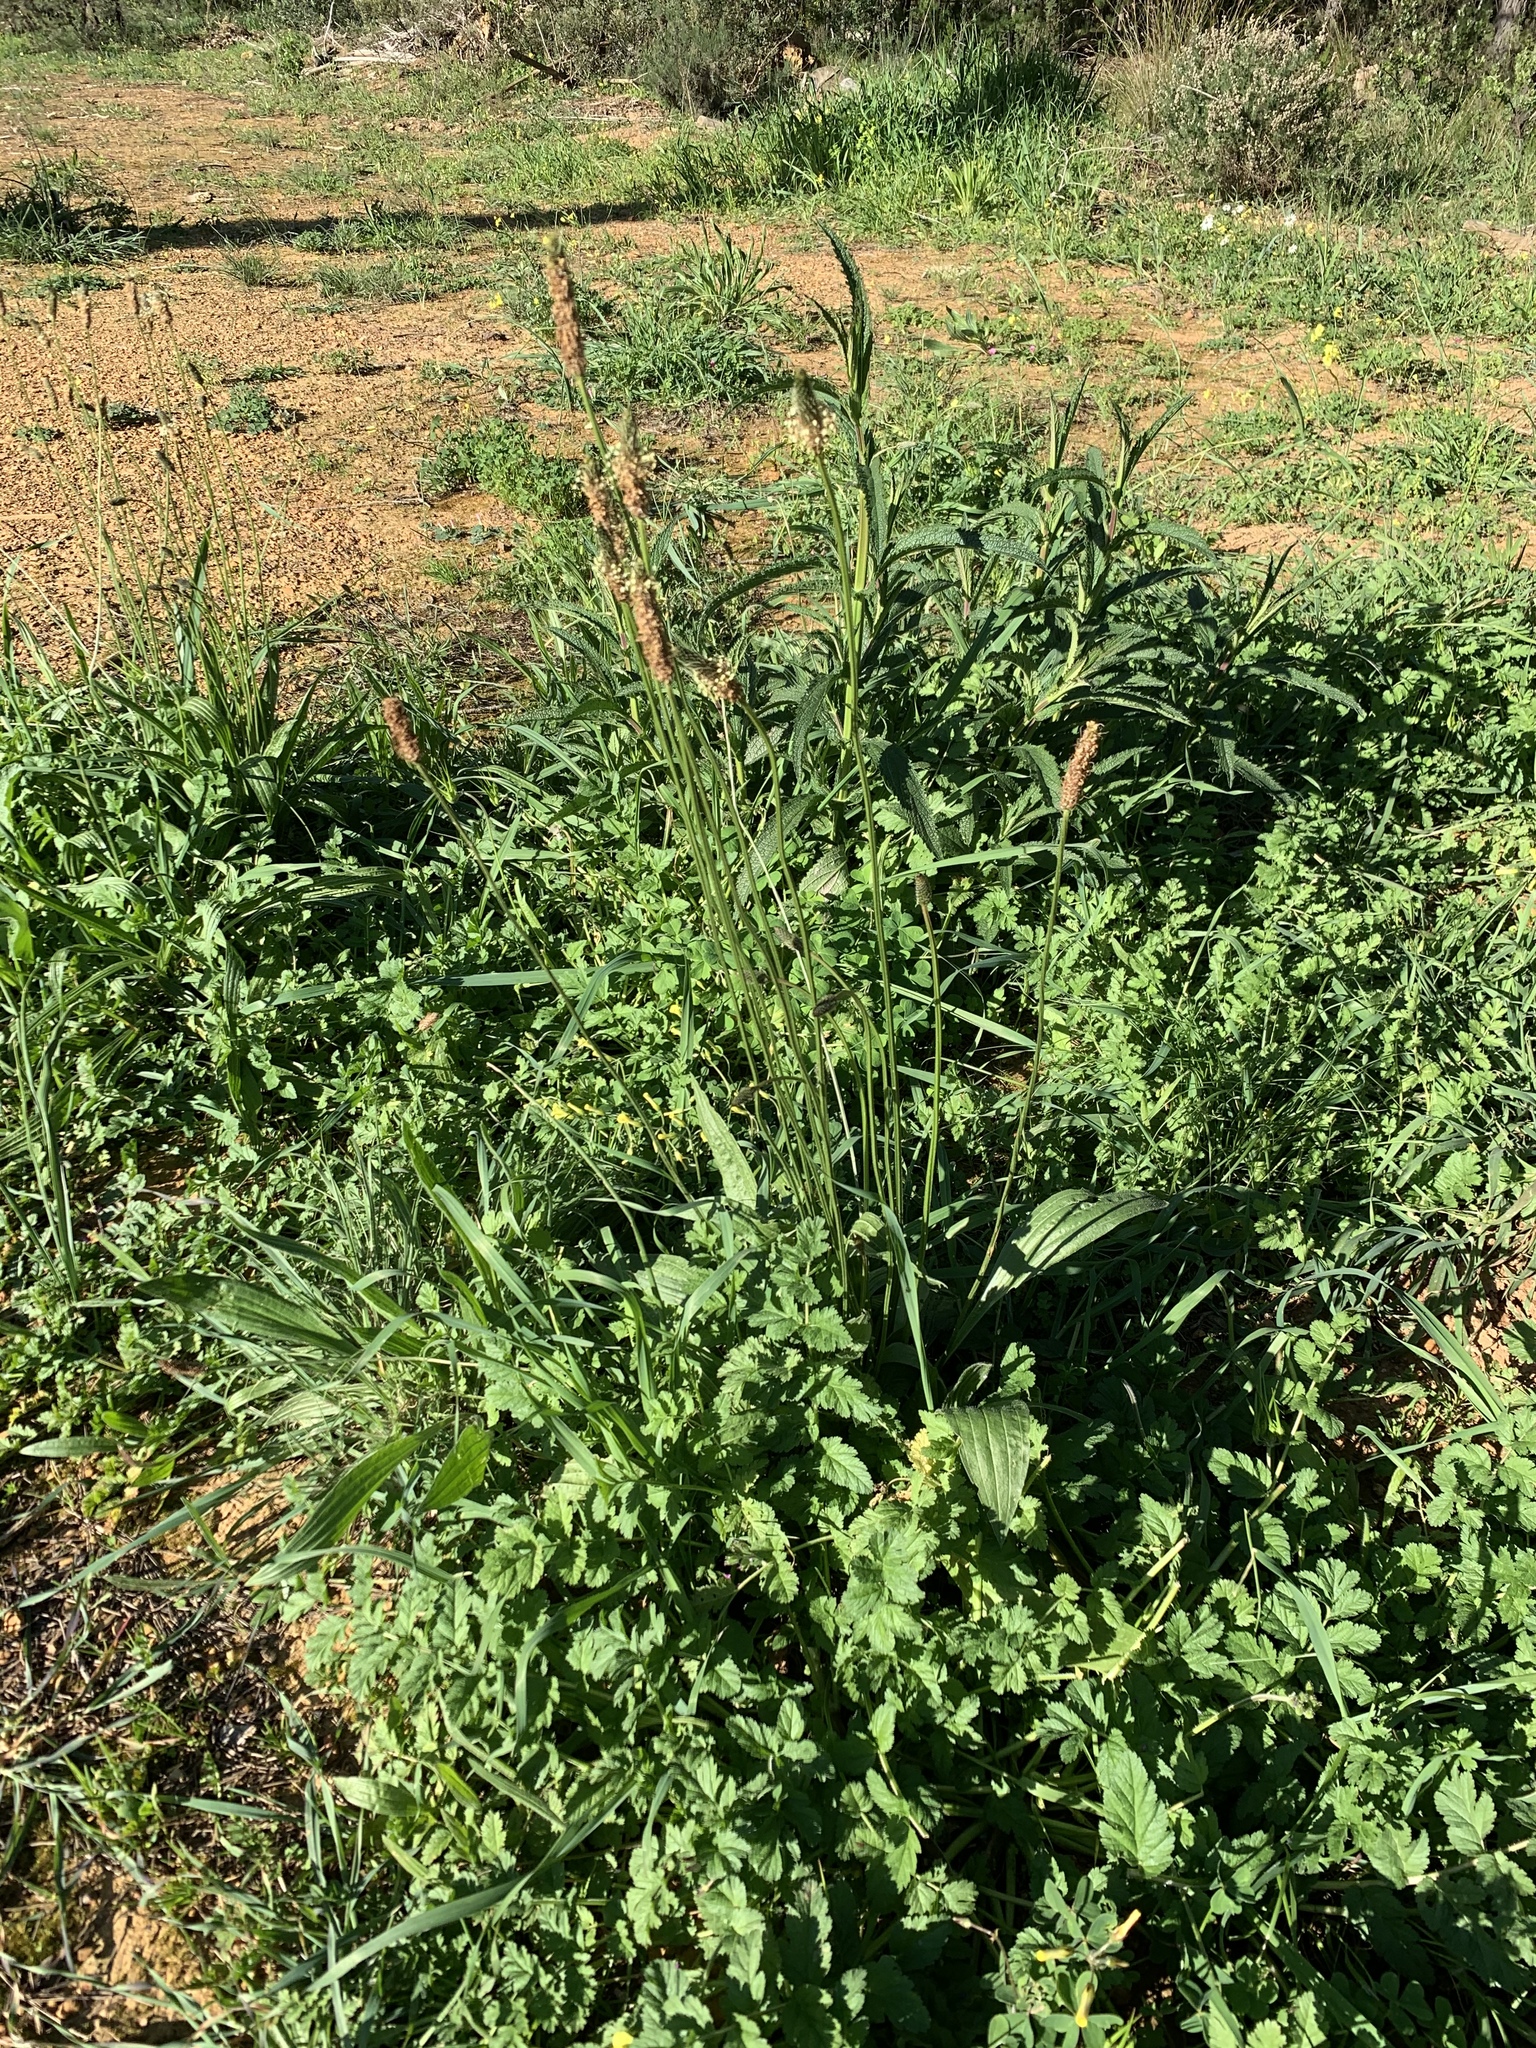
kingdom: Plantae
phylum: Tracheophyta
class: Magnoliopsida
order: Lamiales
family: Plantaginaceae
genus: Plantago
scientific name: Plantago lanceolata
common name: Ribwort plantain
